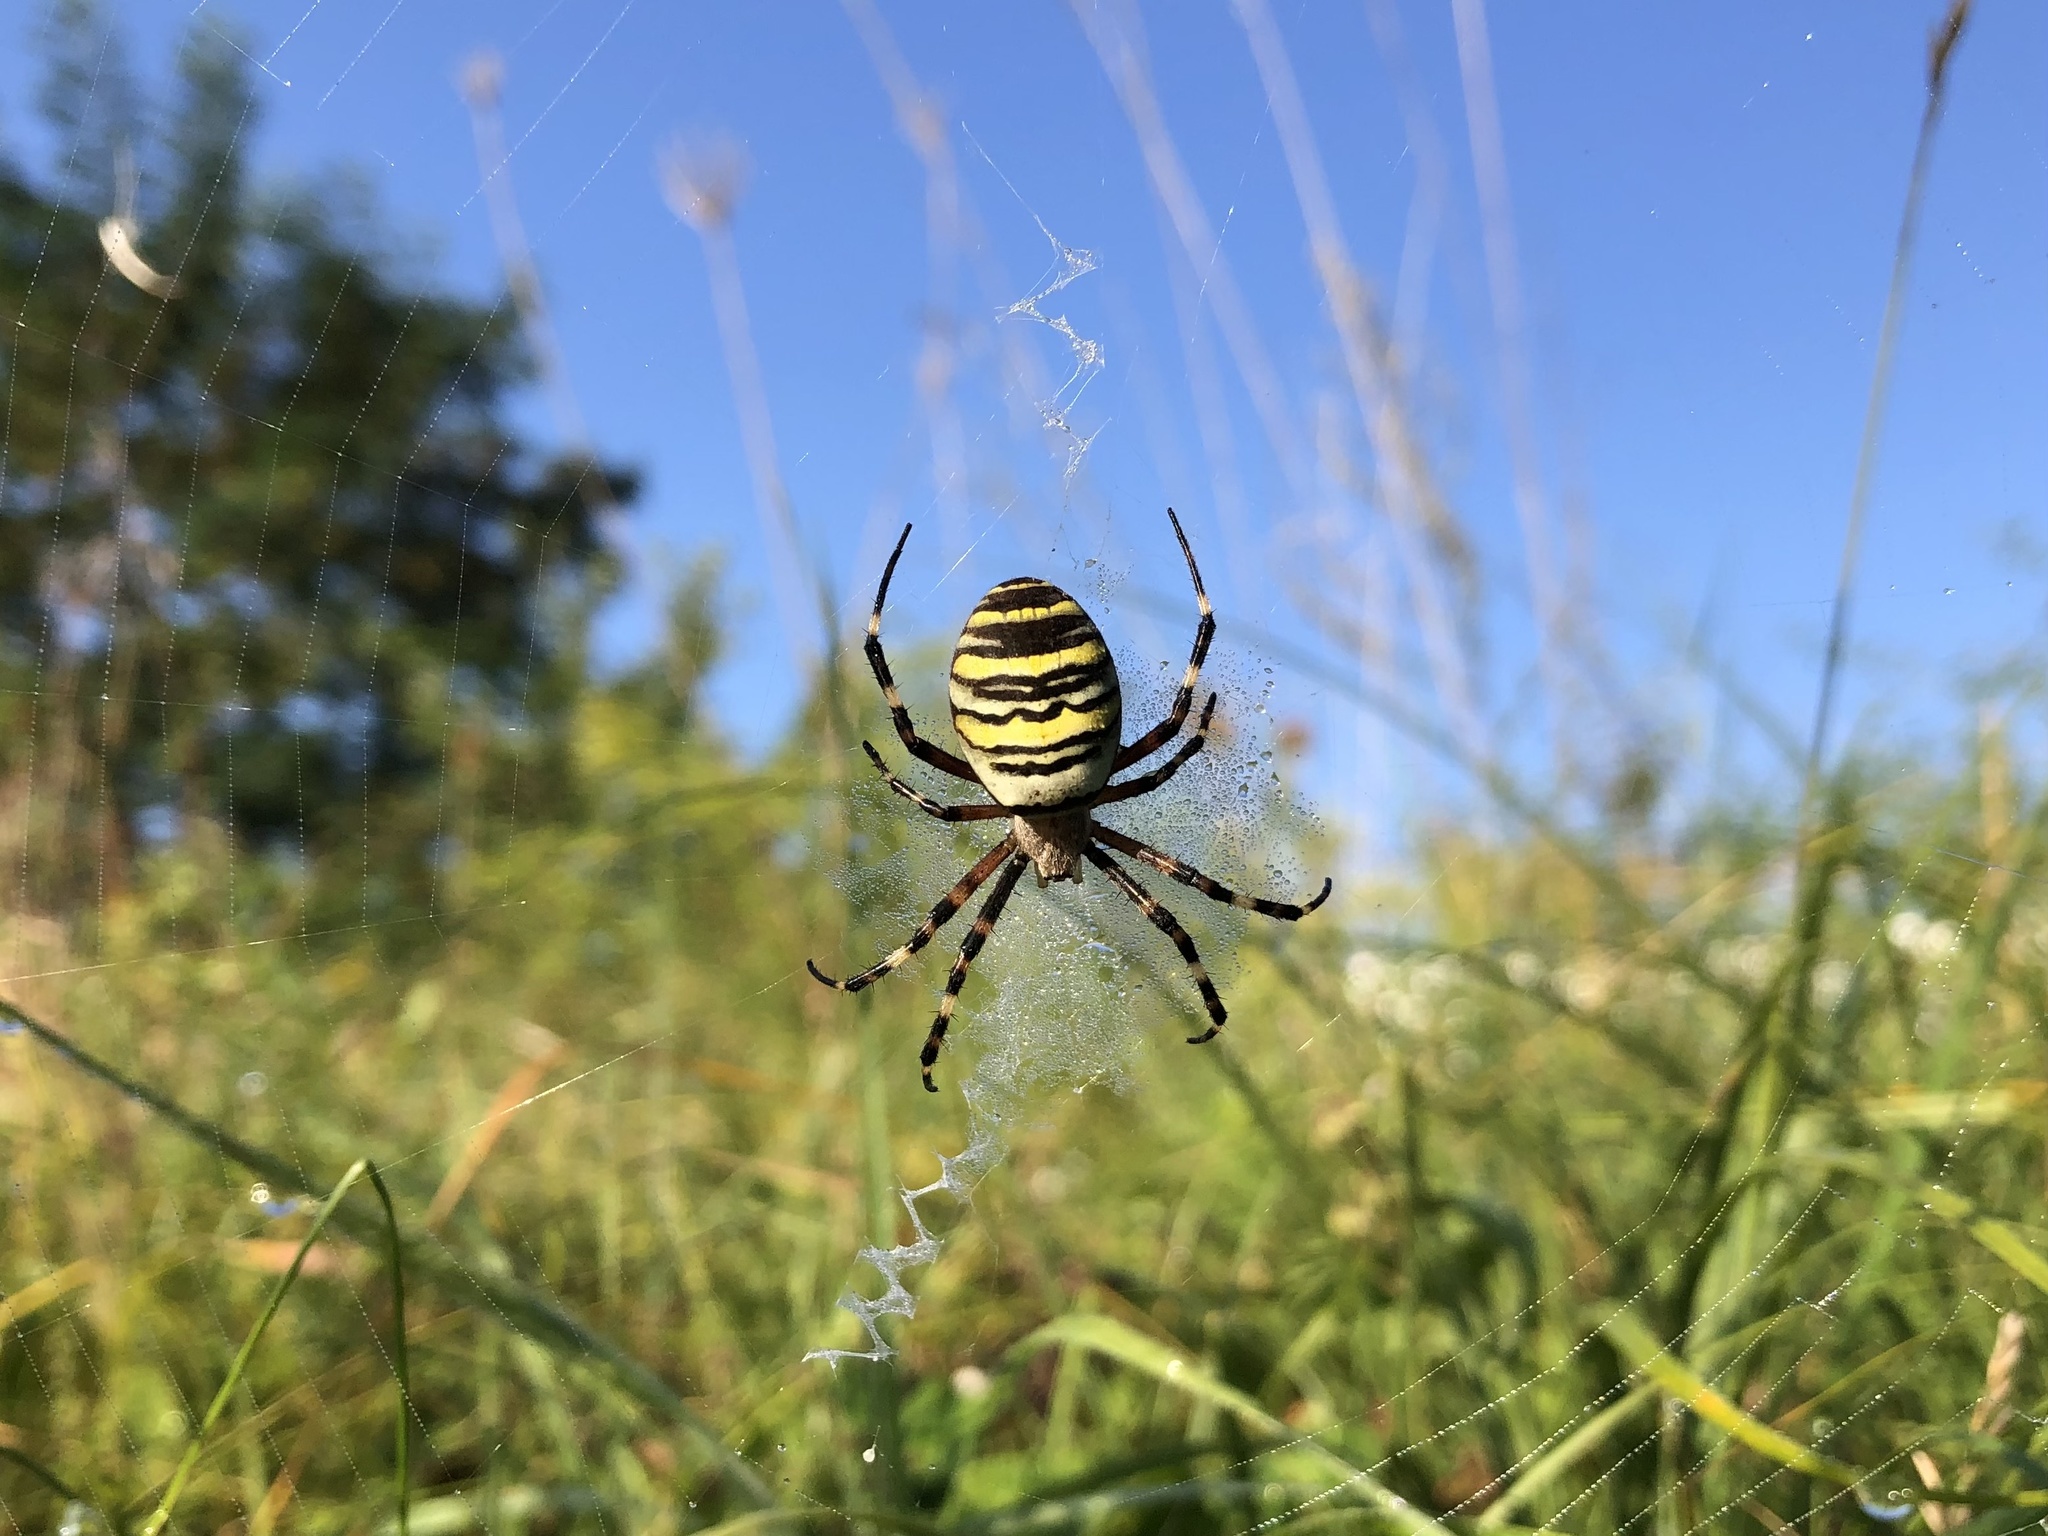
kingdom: Animalia
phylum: Arthropoda
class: Arachnida
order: Araneae
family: Araneidae
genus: Argiope
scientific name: Argiope bruennichi
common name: Wasp spider
